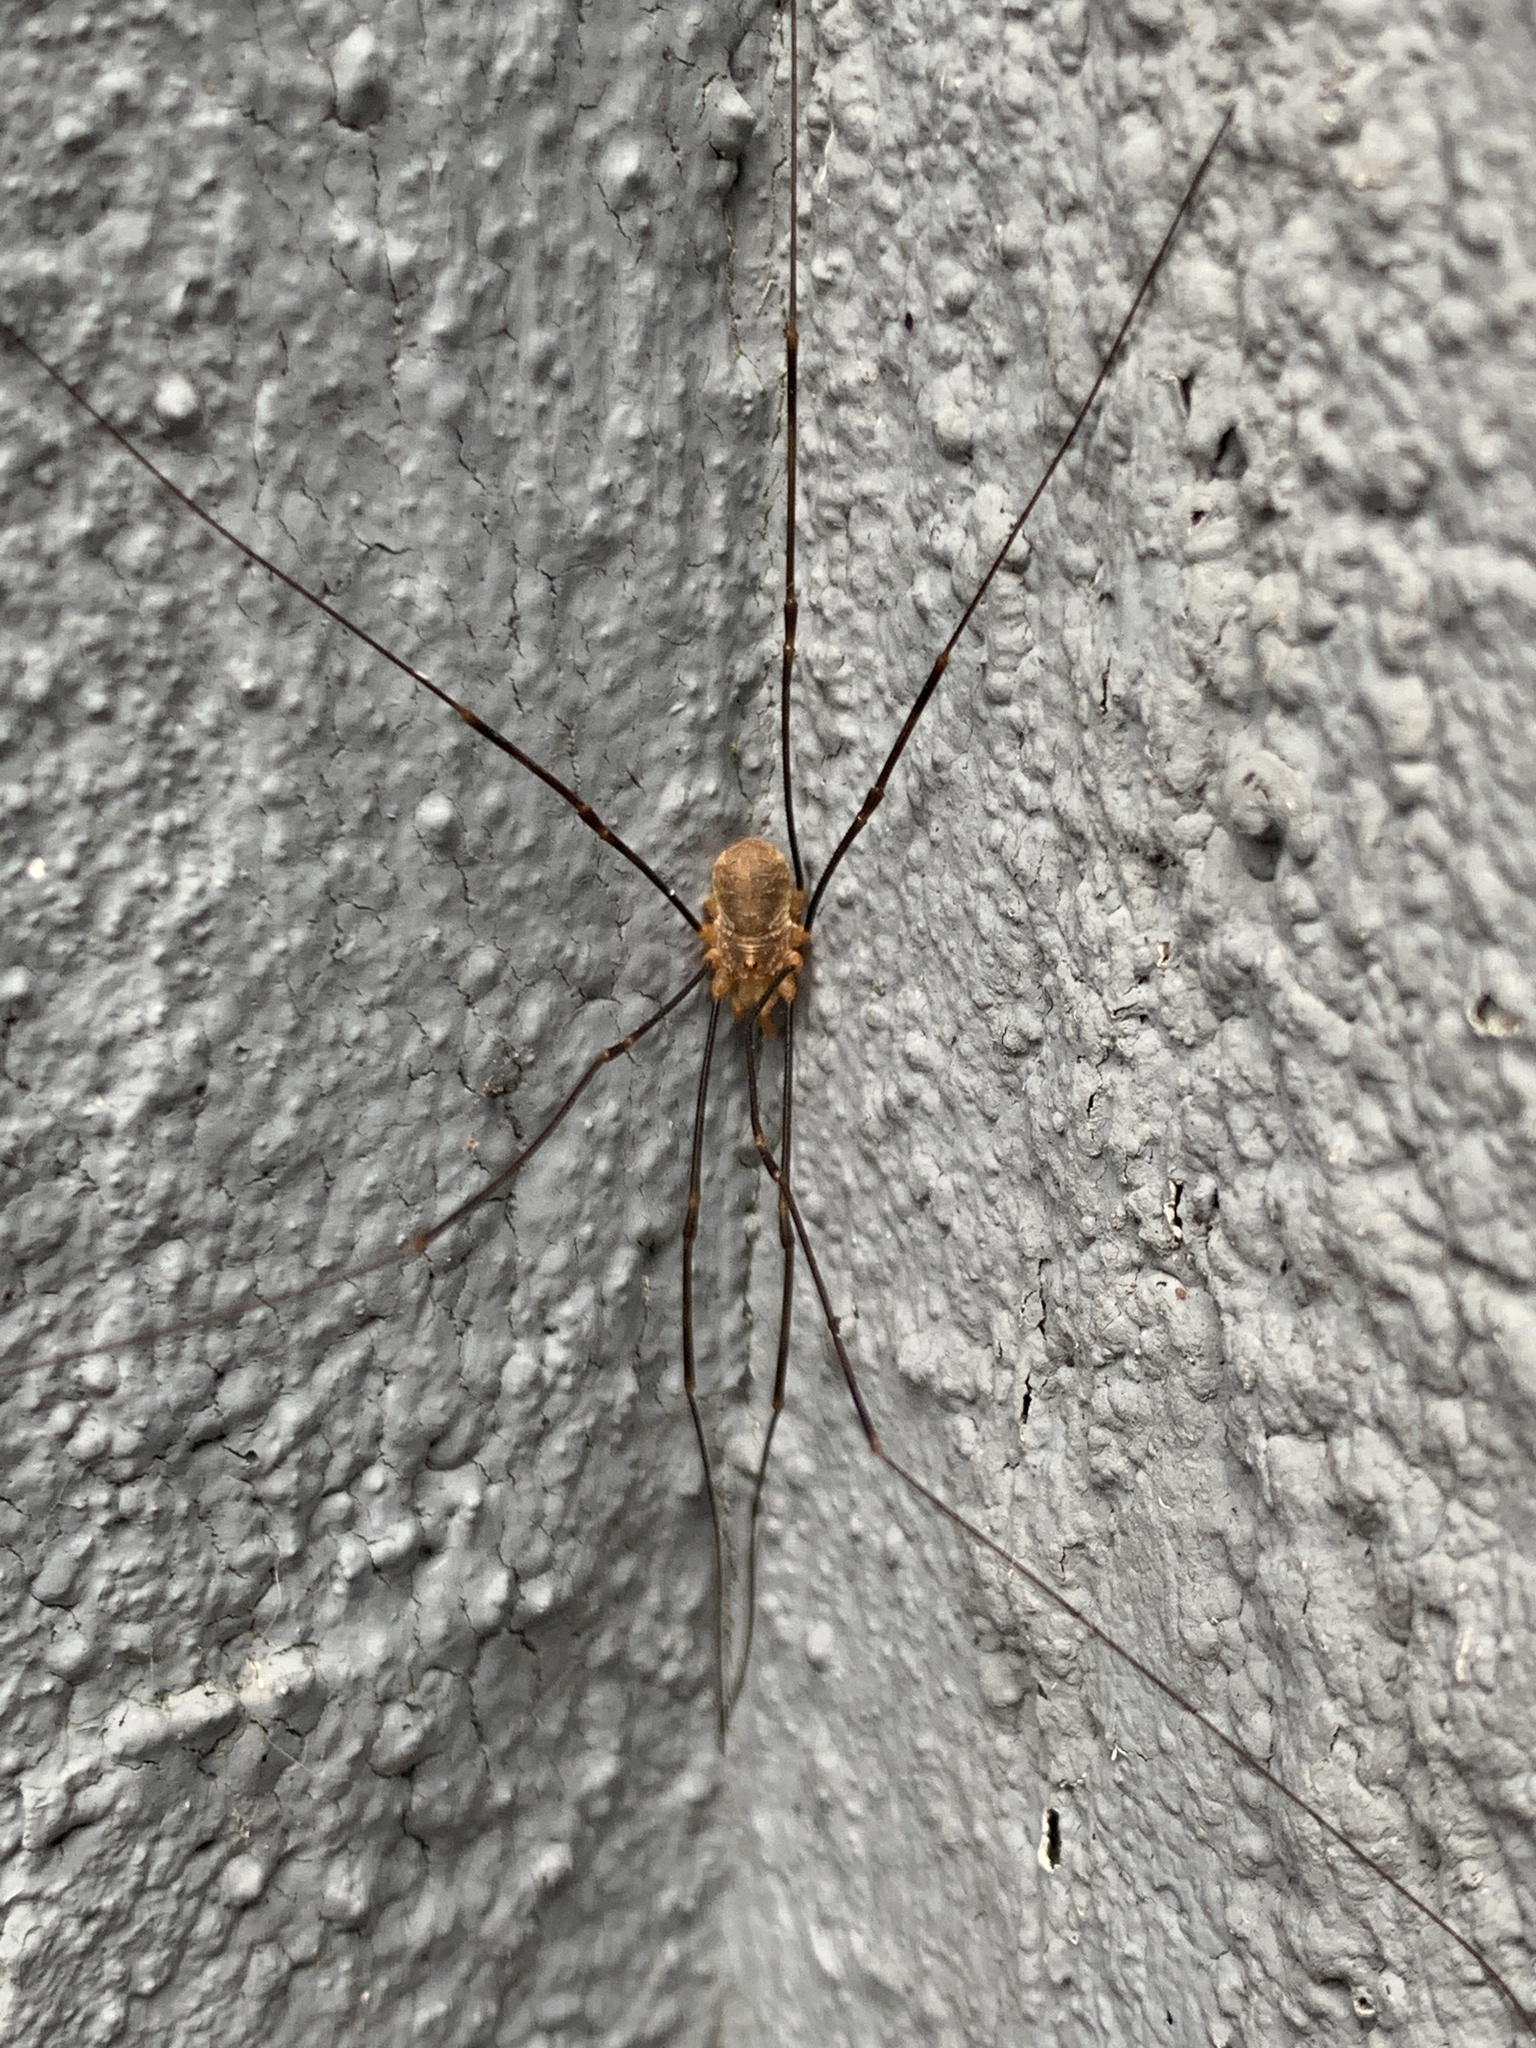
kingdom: Animalia
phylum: Arthropoda
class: Arachnida
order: Opiliones
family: Phalangiidae
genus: Opilio
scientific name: Opilio canestrinii
